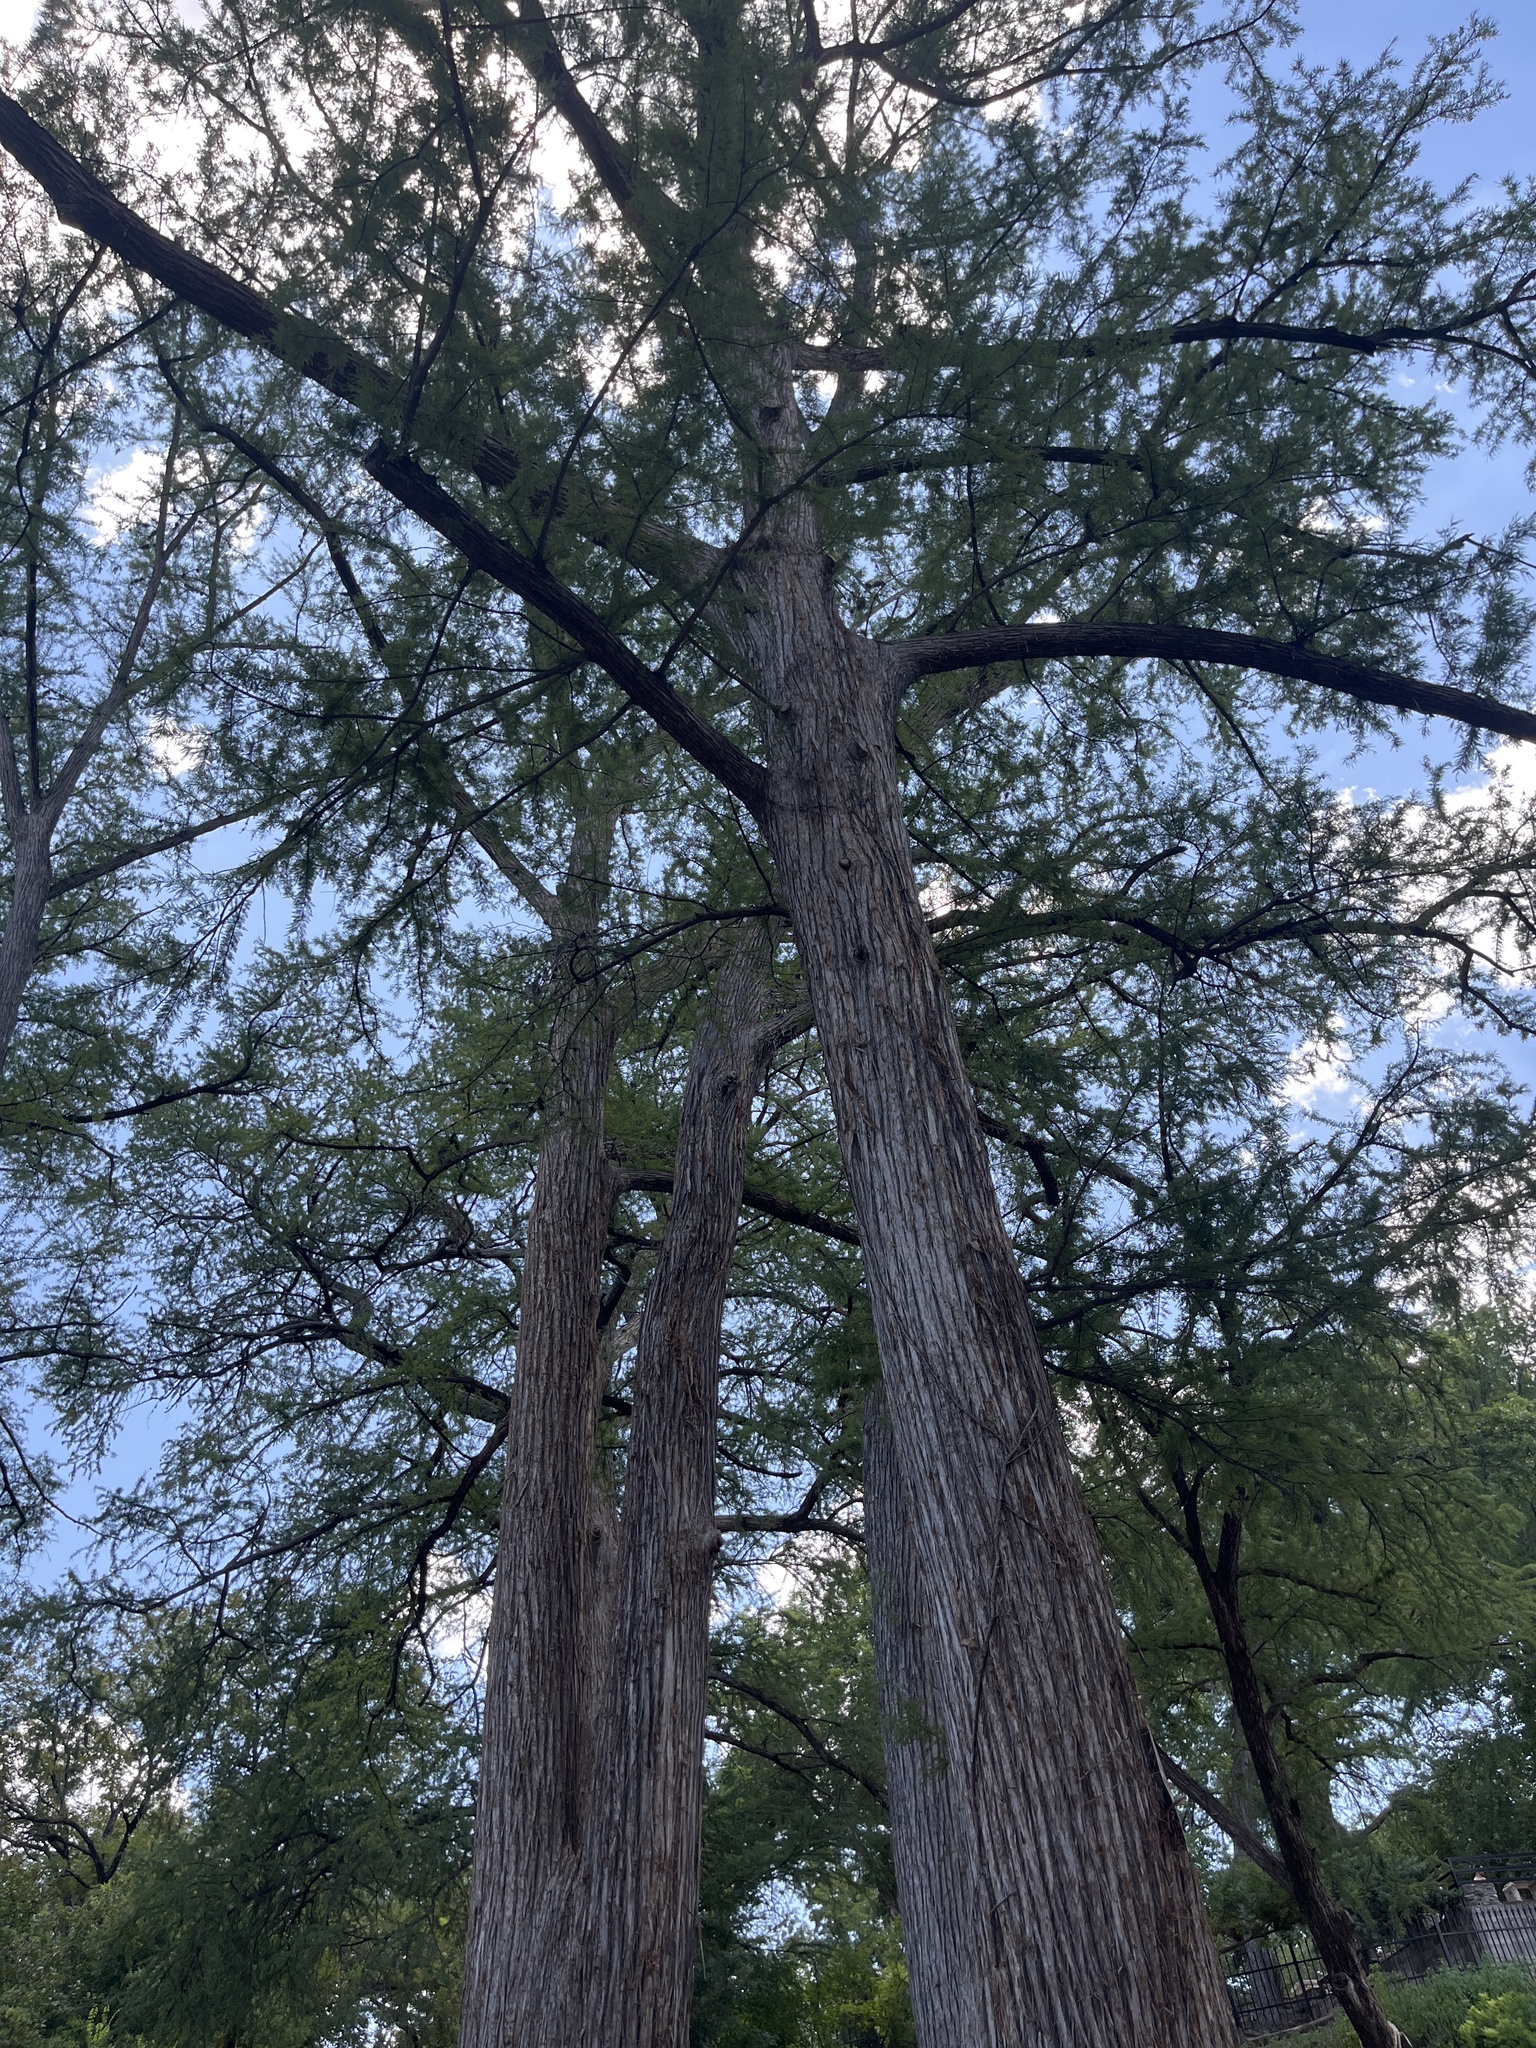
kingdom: Plantae
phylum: Tracheophyta
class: Pinopsida
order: Pinales
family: Cupressaceae
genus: Taxodium
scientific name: Taxodium distichum
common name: Bald cypress
